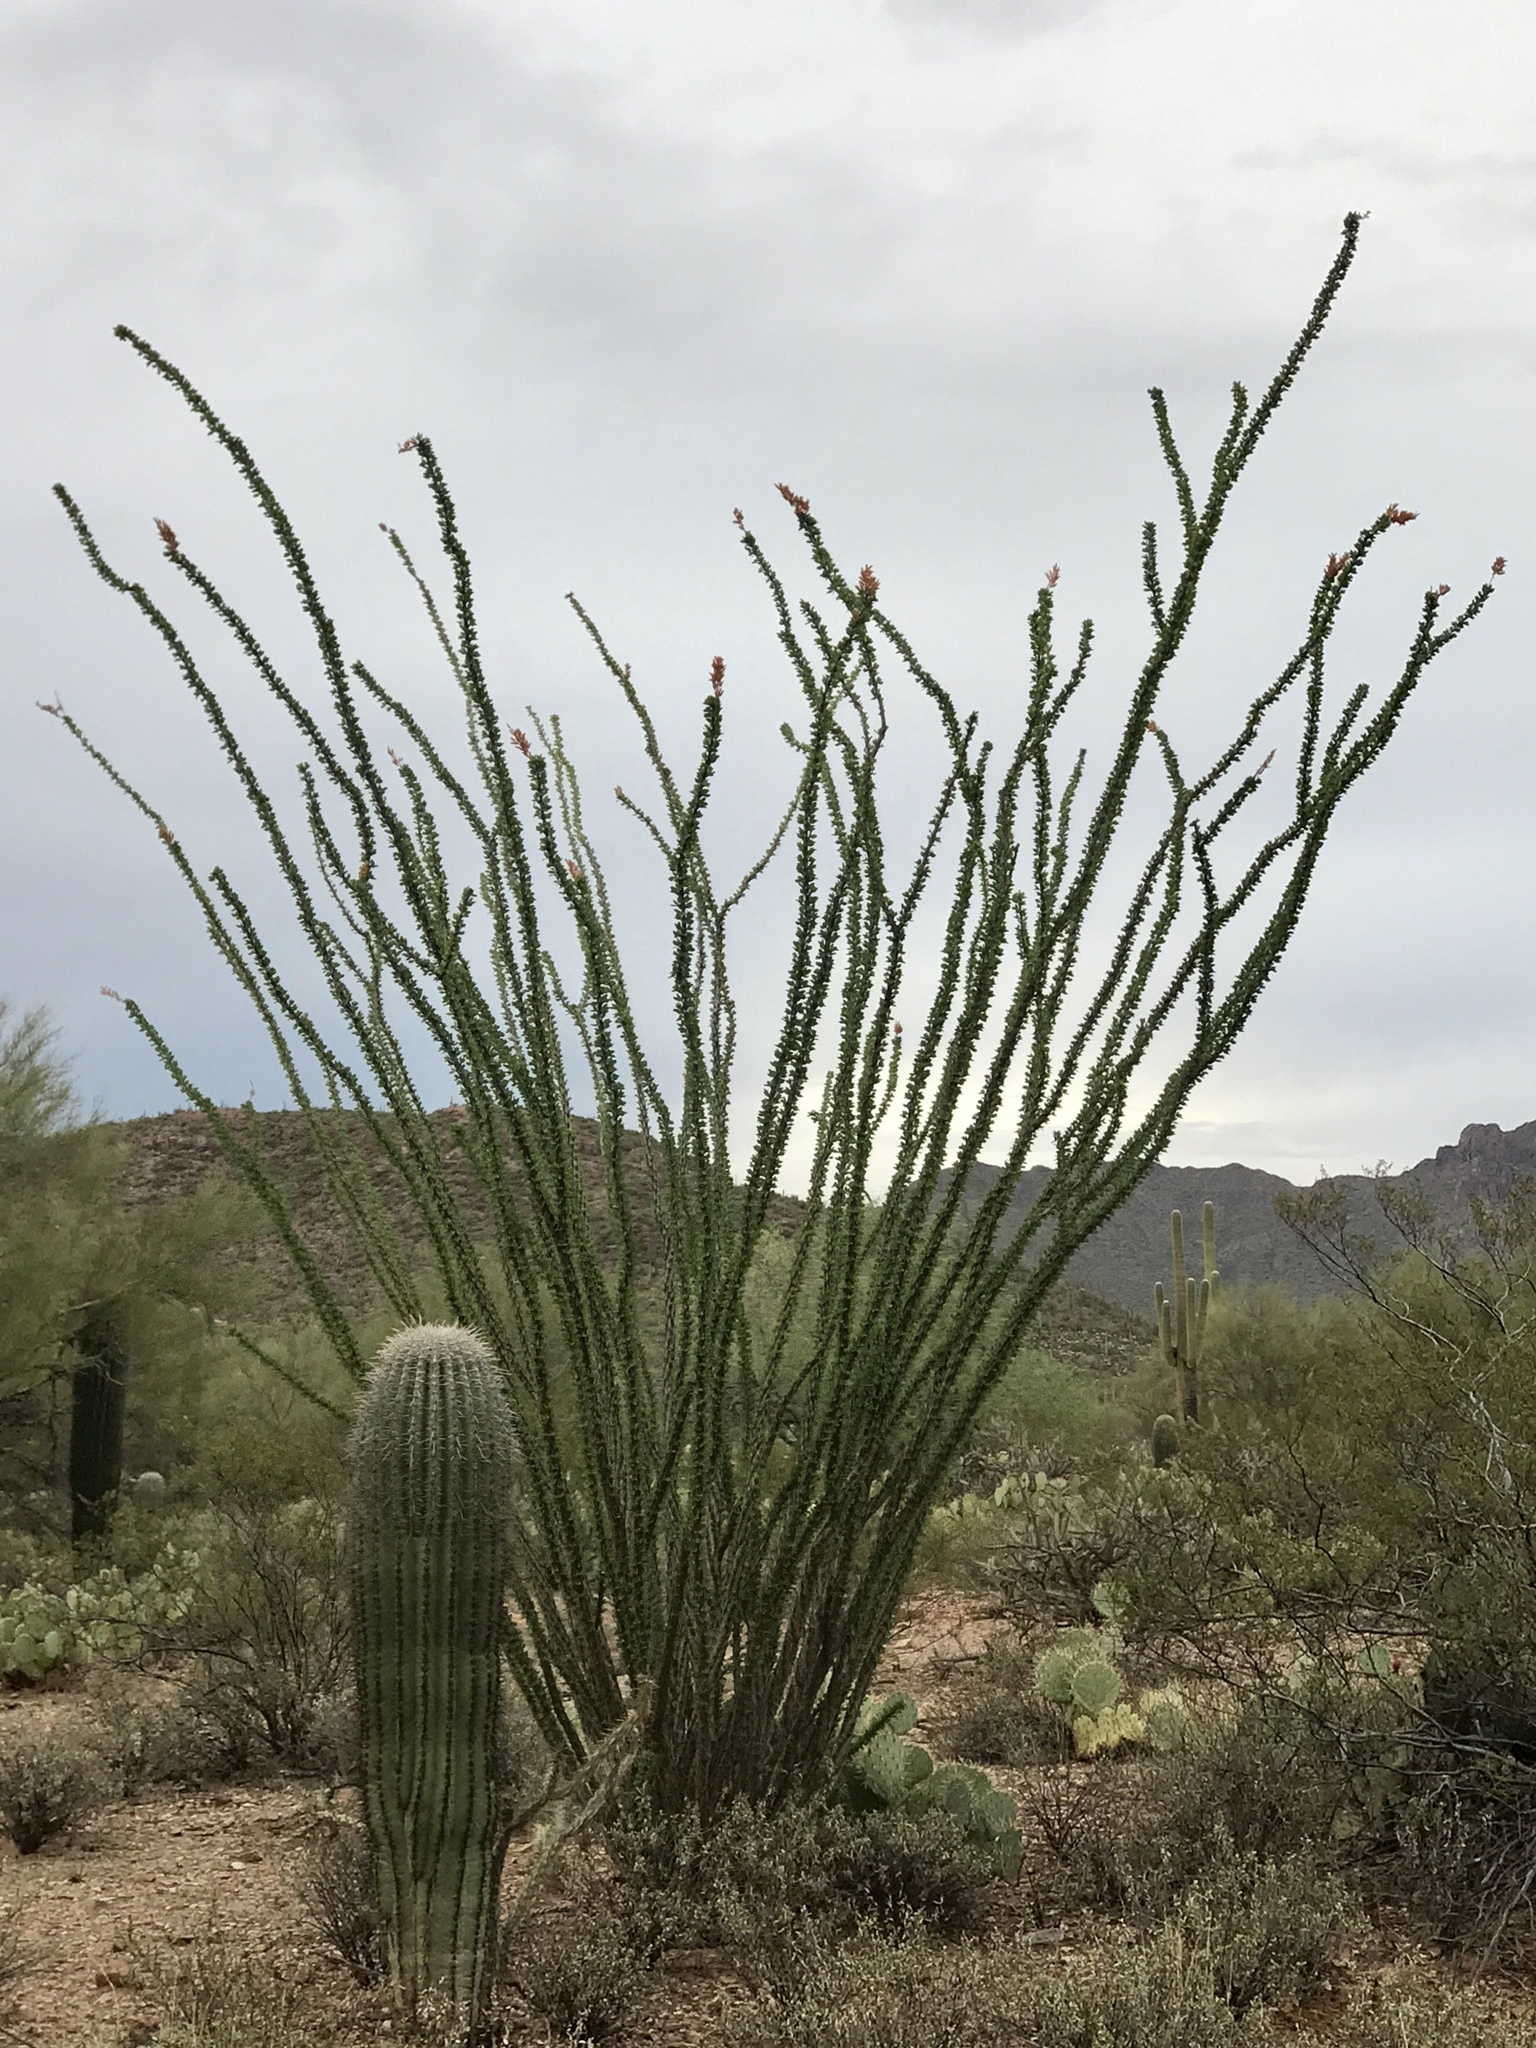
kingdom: Plantae
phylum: Tracheophyta
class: Magnoliopsida
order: Ericales
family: Fouquieriaceae
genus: Fouquieria
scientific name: Fouquieria splendens
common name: Vine-cactus
